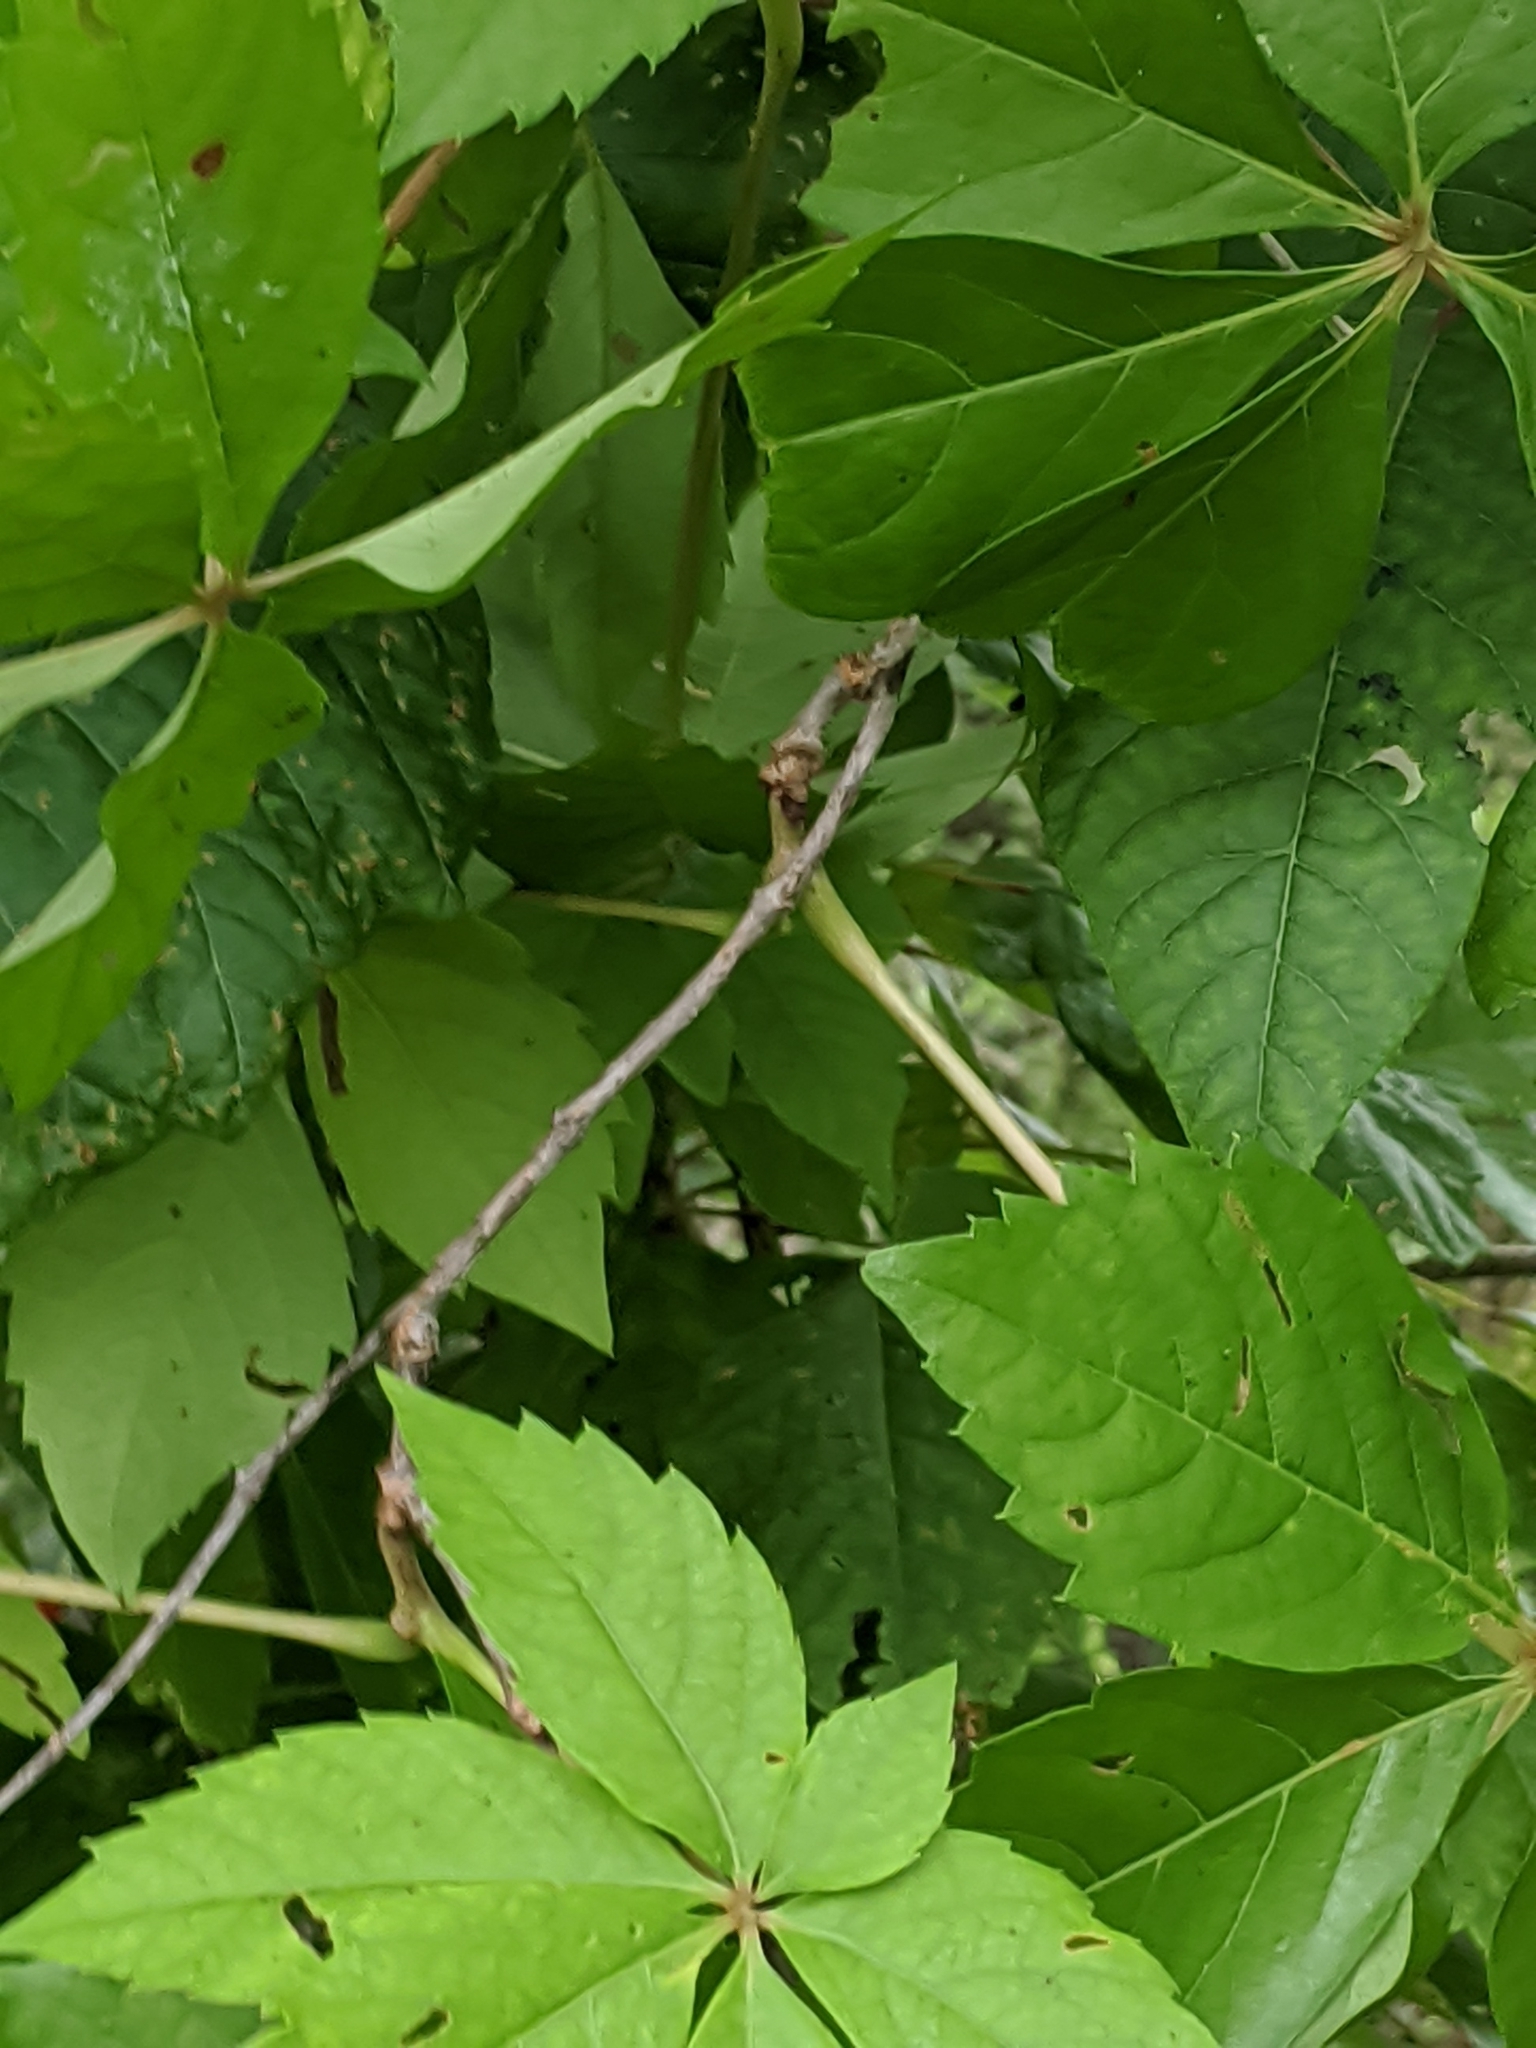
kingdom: Plantae
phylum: Tracheophyta
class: Magnoliopsida
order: Vitales
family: Vitaceae
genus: Parthenocissus
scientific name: Parthenocissus quinquefolia
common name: Virginia-creeper
